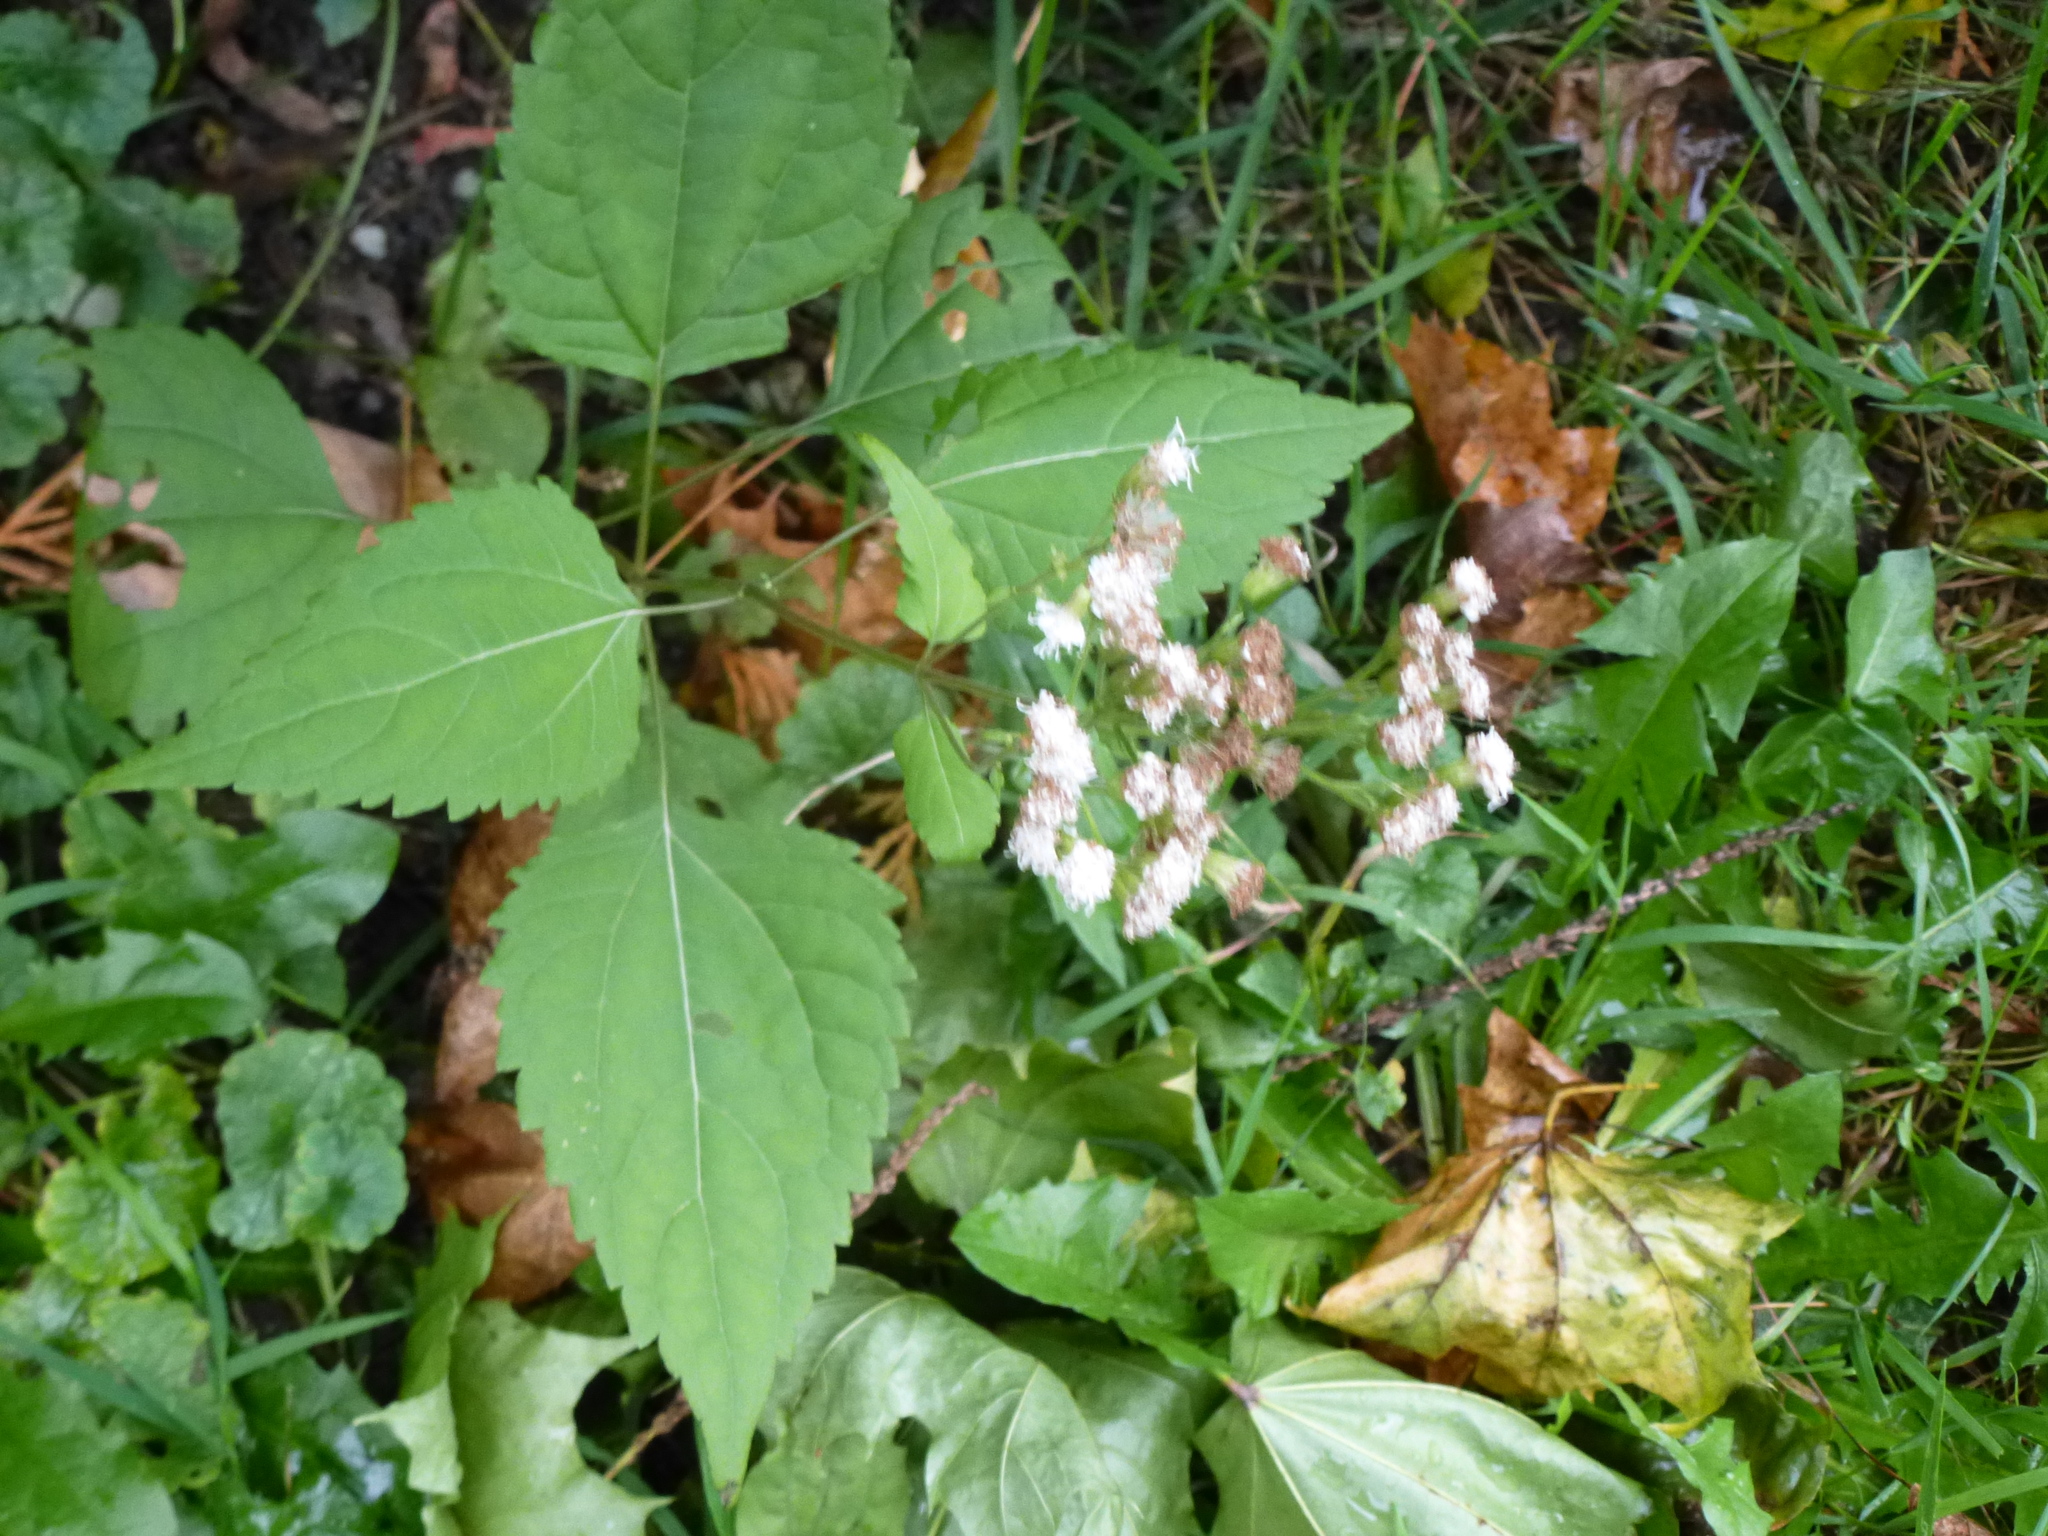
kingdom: Plantae
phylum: Tracheophyta
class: Magnoliopsida
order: Asterales
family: Asteraceae
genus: Ageratina
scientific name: Ageratina altissima
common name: White snakeroot
